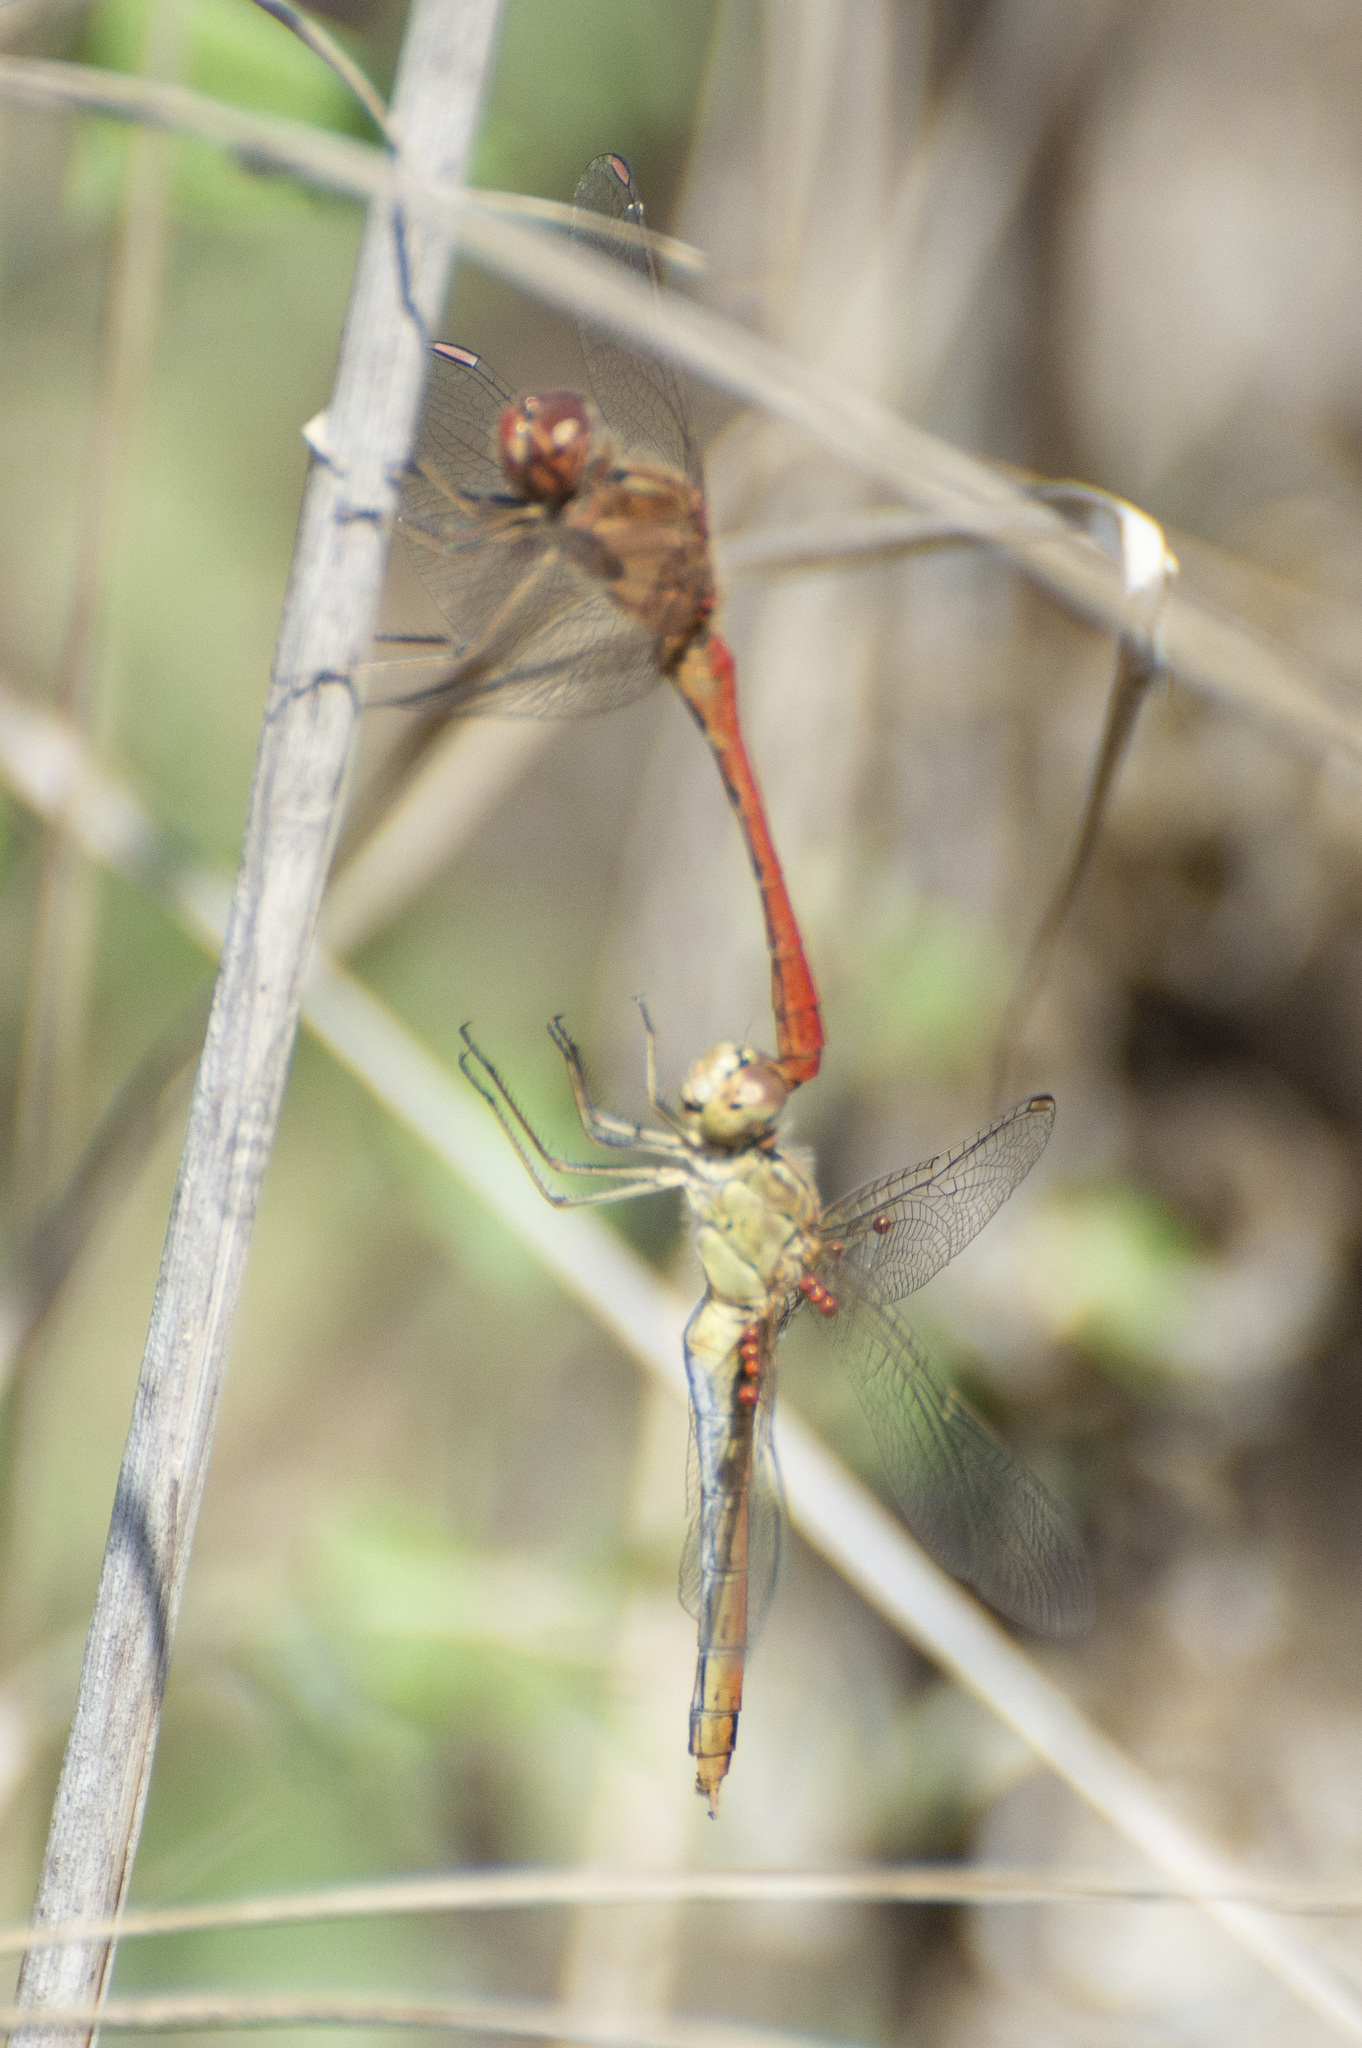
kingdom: Animalia
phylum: Arthropoda
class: Insecta
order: Odonata
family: Libellulidae
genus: Sympetrum
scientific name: Sympetrum meridionale
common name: Southern darter
